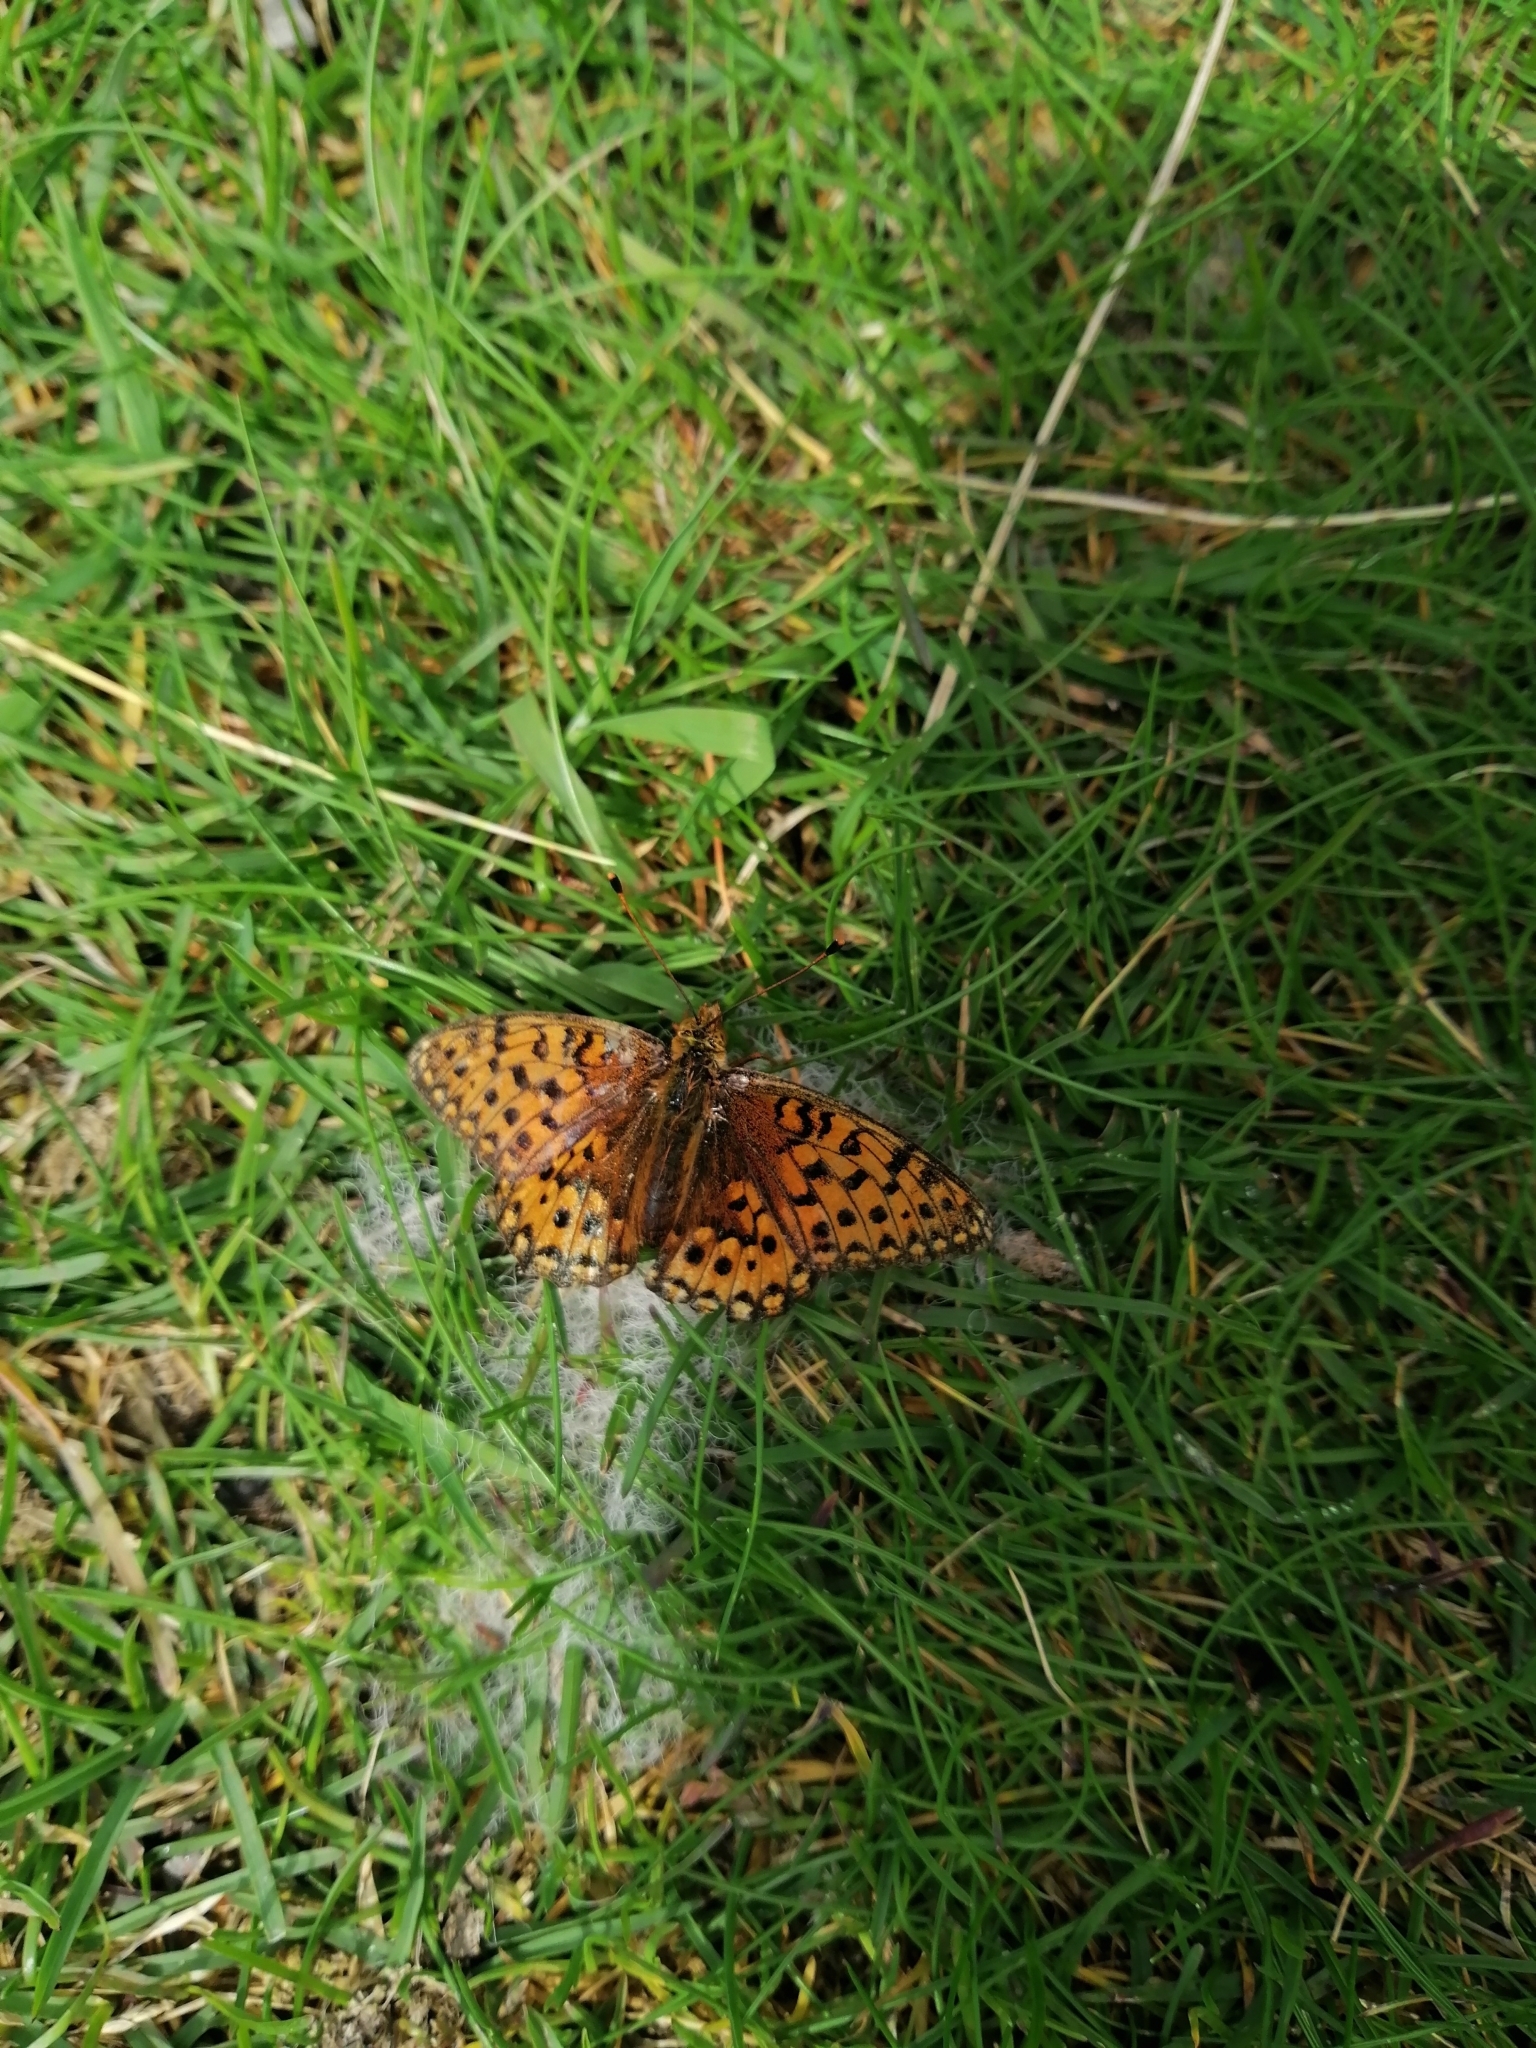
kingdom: Animalia
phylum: Arthropoda
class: Insecta
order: Lepidoptera
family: Nymphalidae
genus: Speyeria
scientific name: Speyeria aglaja
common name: Dark green fritillary
